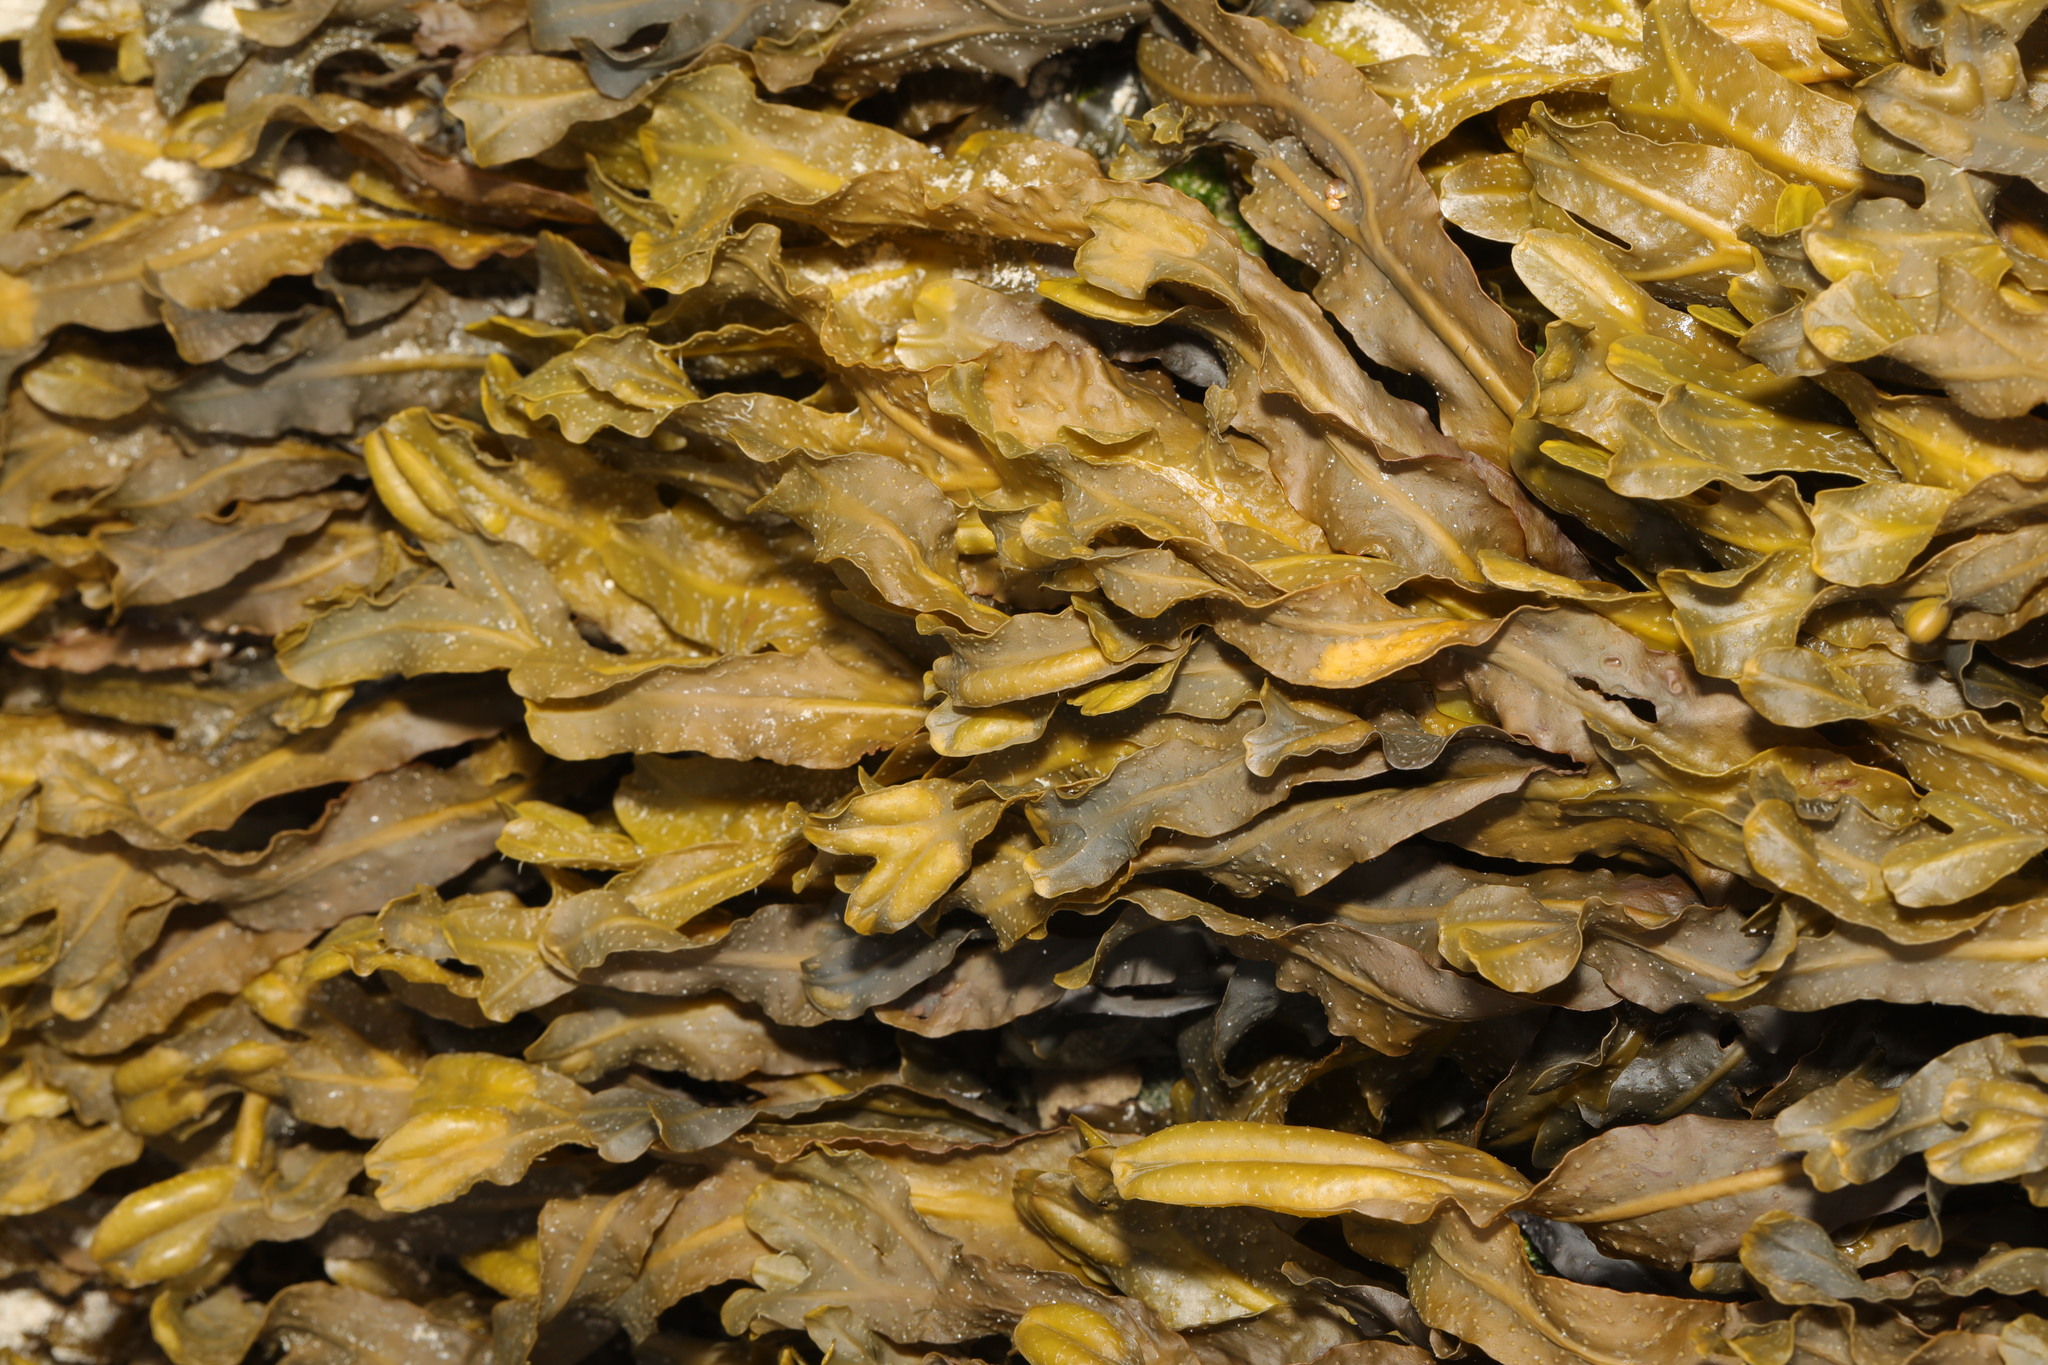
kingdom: Chromista
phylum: Ochrophyta
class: Phaeophyceae
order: Fucales
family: Fucaceae
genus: Fucus
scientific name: Fucus spiralis
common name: Spiral wrack
